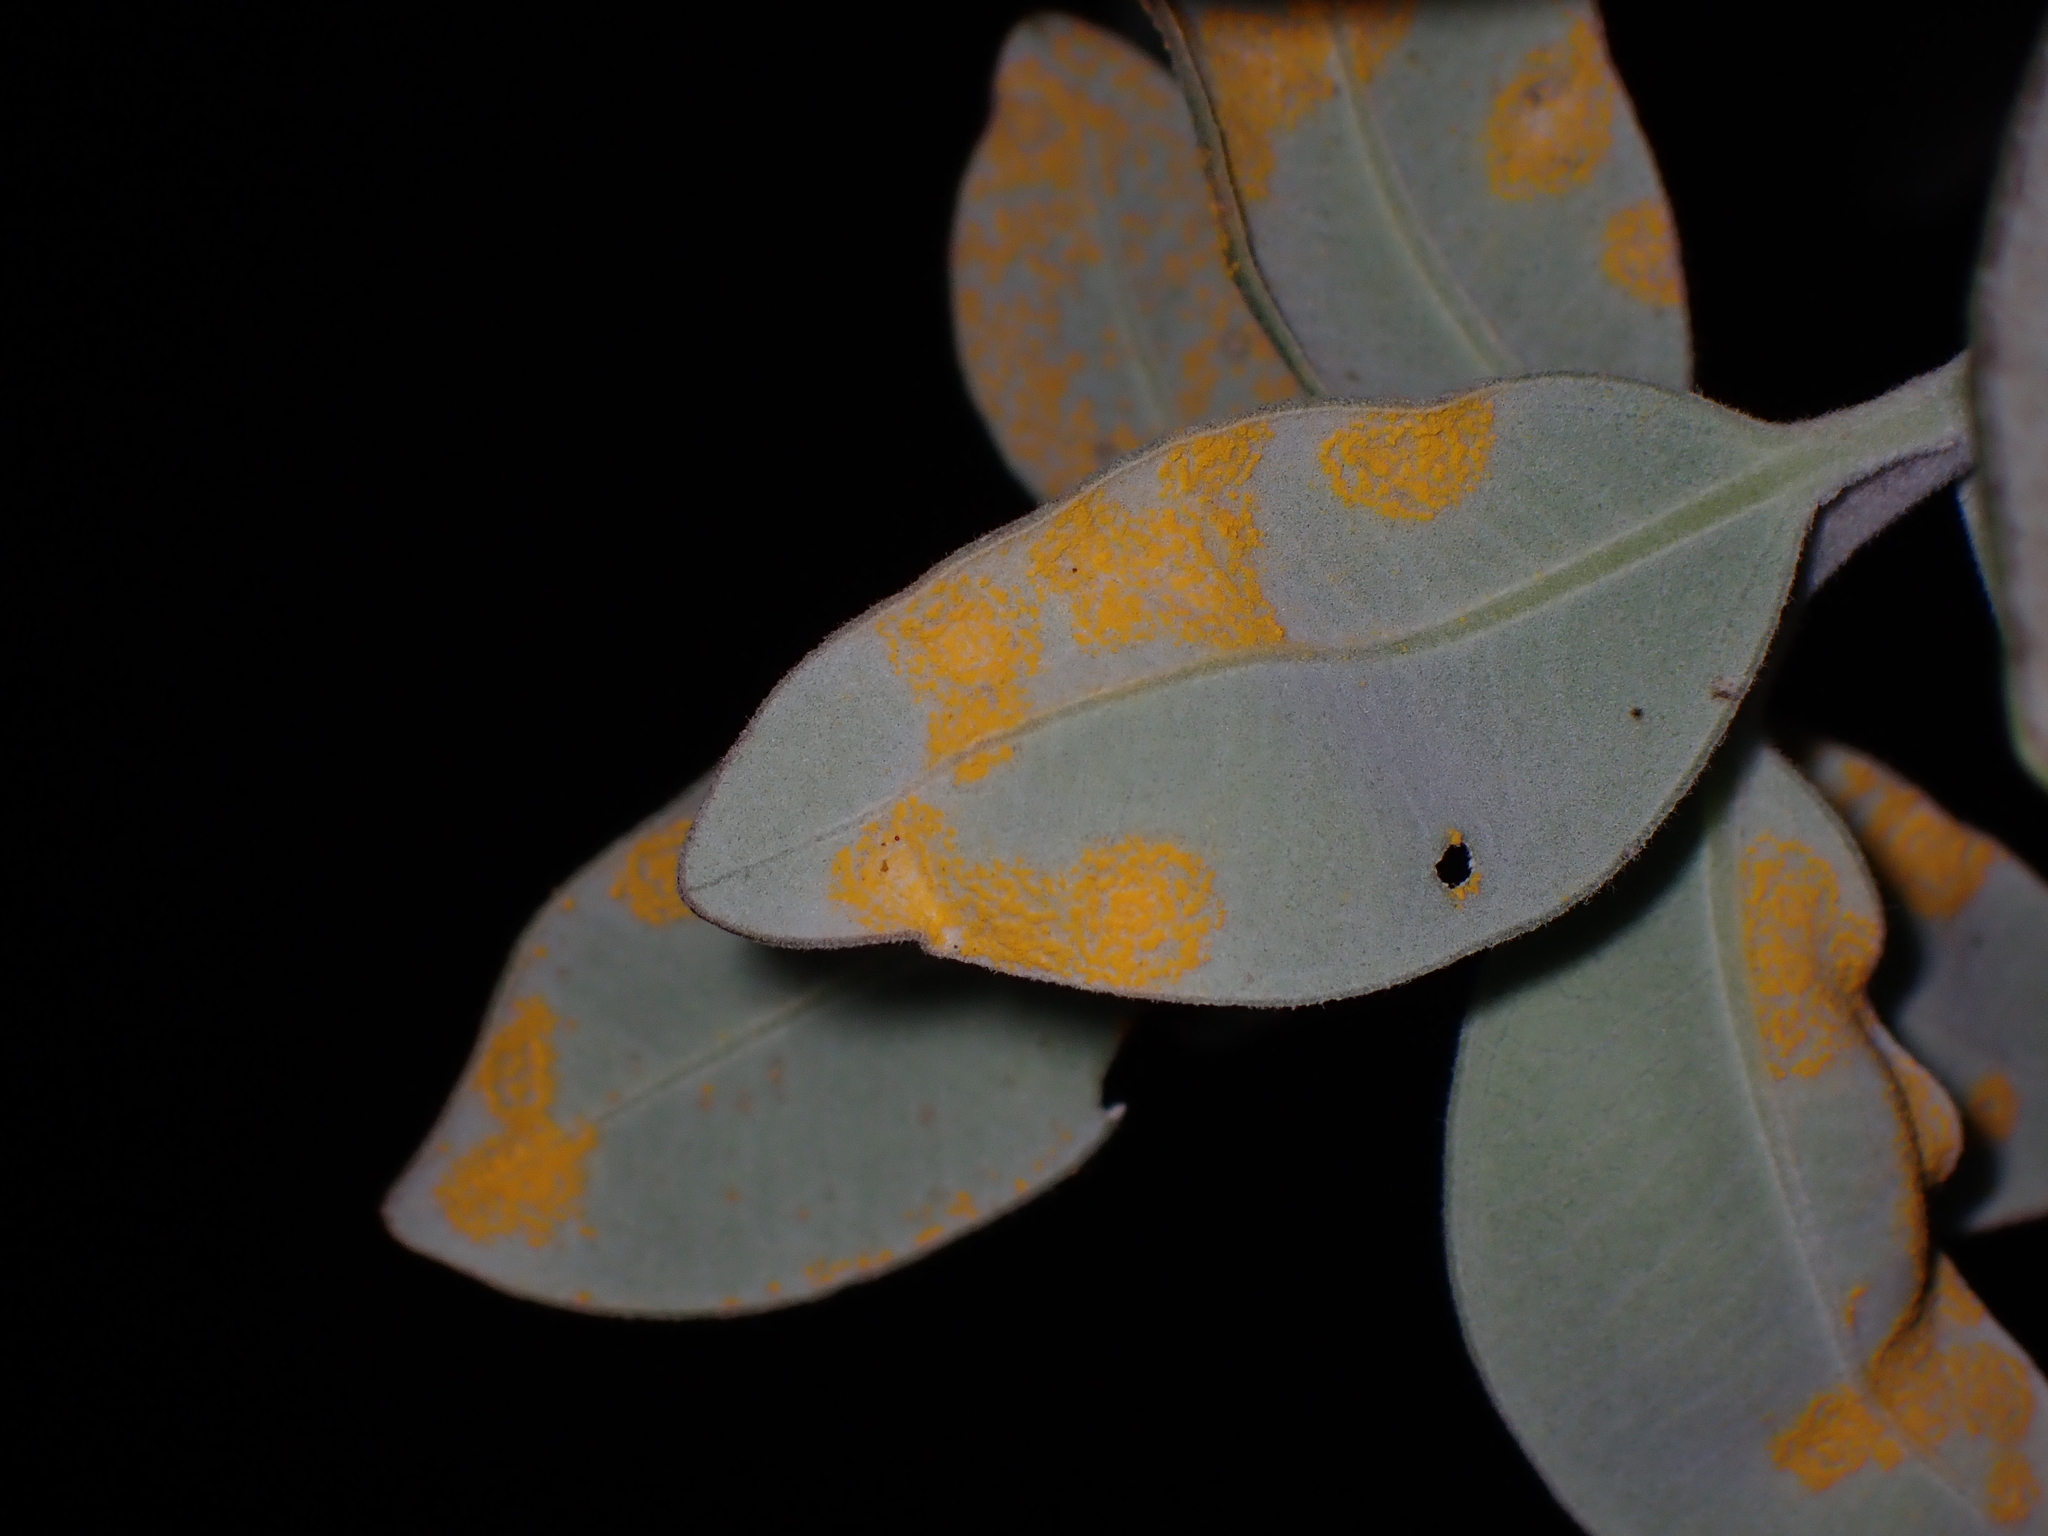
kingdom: Fungi
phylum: Basidiomycota
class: Pucciniomycetes
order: Pucciniales
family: Sphaerophragmiaceae
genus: Austropuccinia
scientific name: Austropuccinia psidii
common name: Myrtle rust
